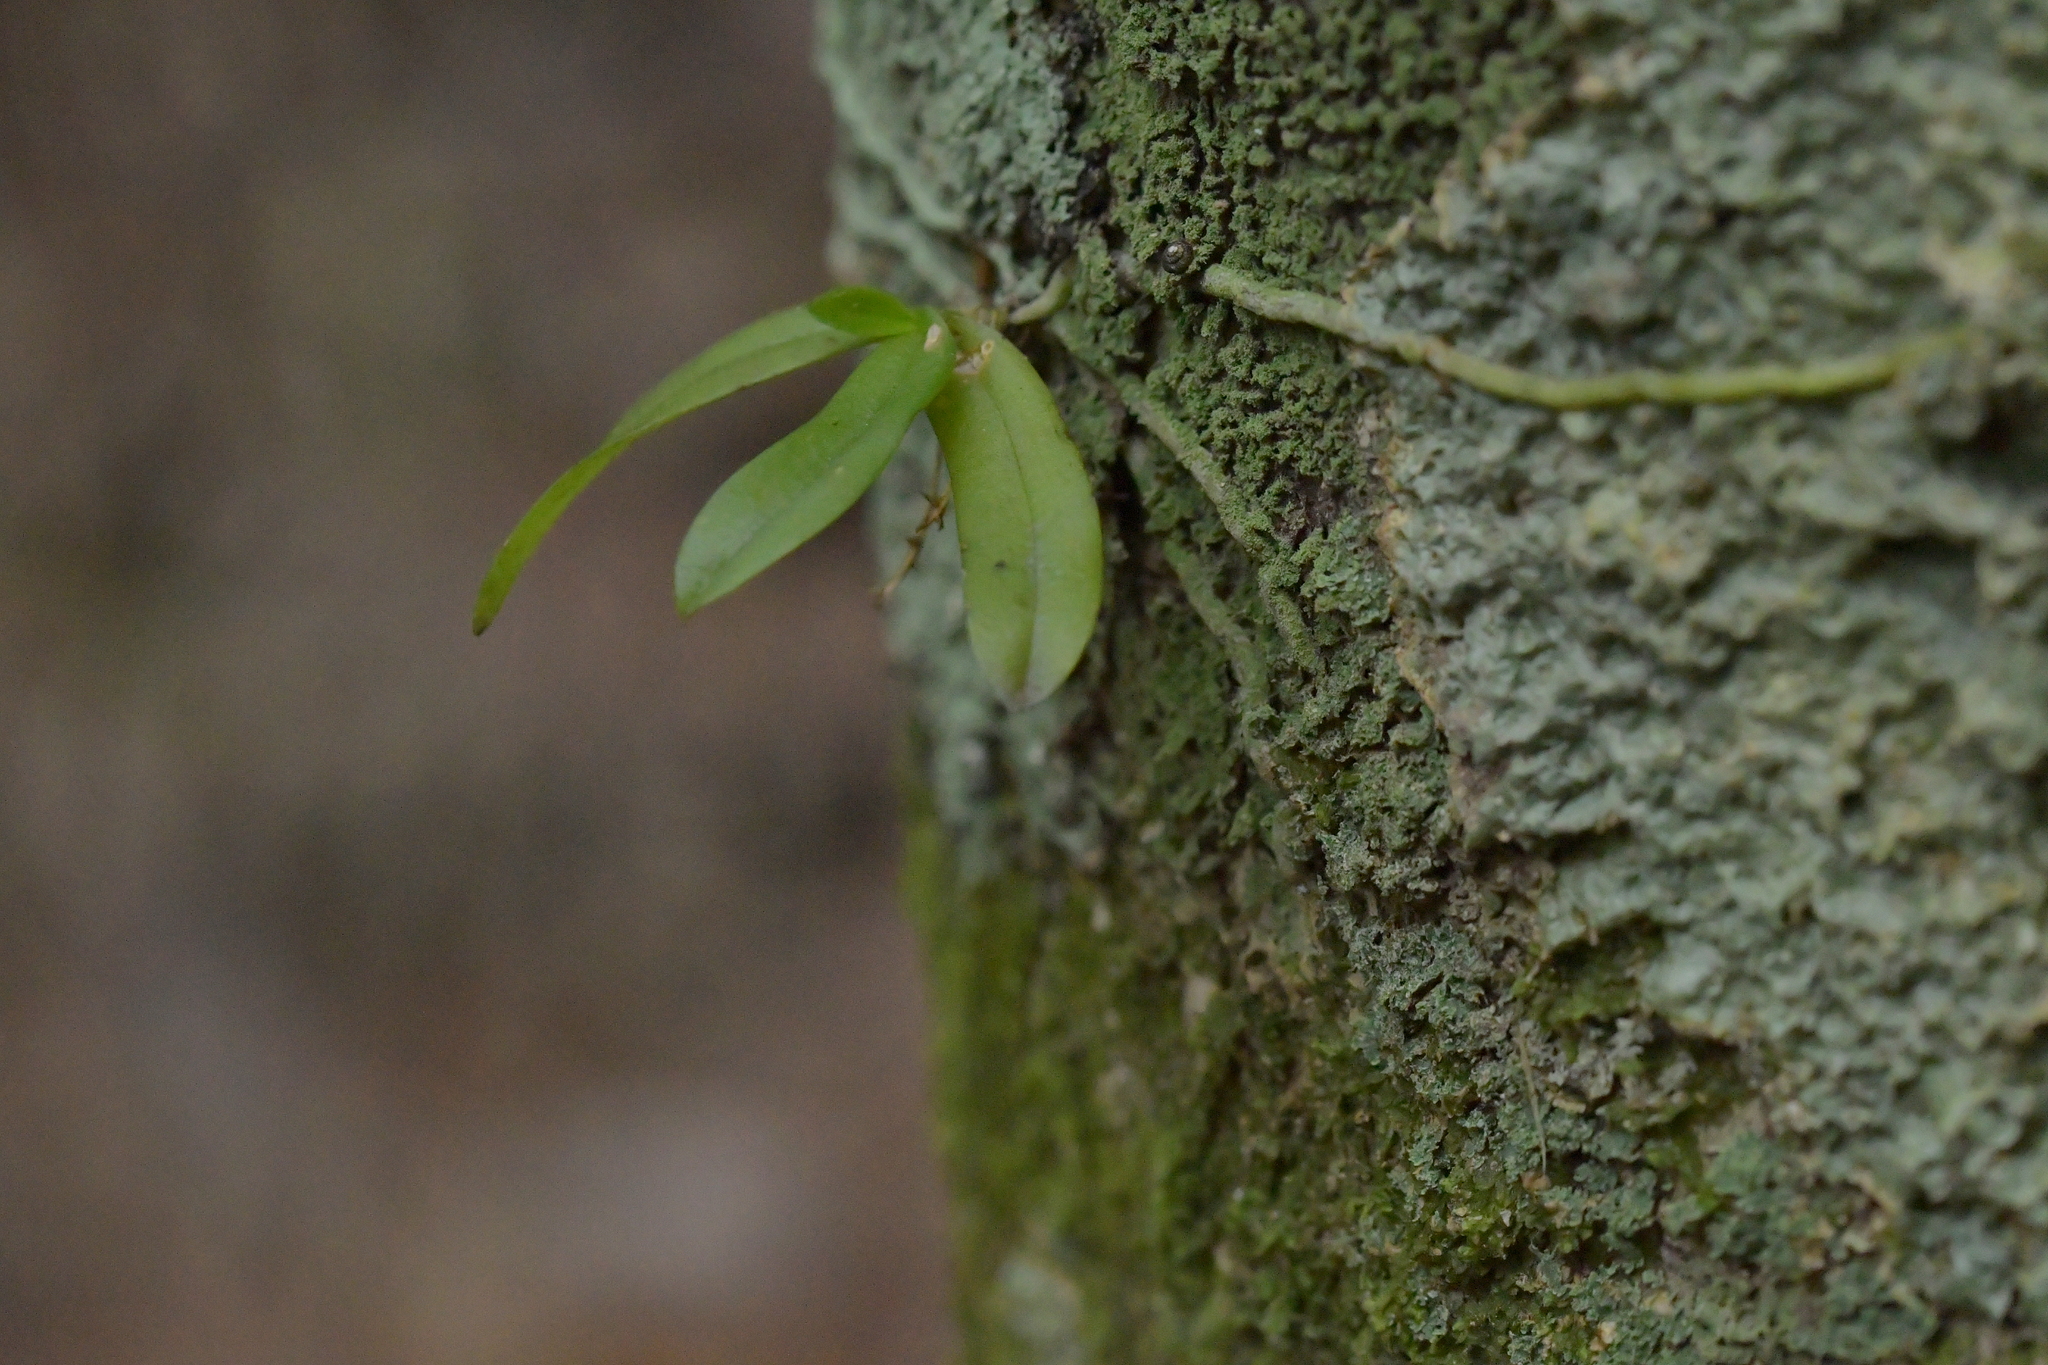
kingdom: Plantae
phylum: Tracheophyta
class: Liliopsida
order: Asparagales
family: Orchidaceae
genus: Drymoanthus
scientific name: Drymoanthus adversus
